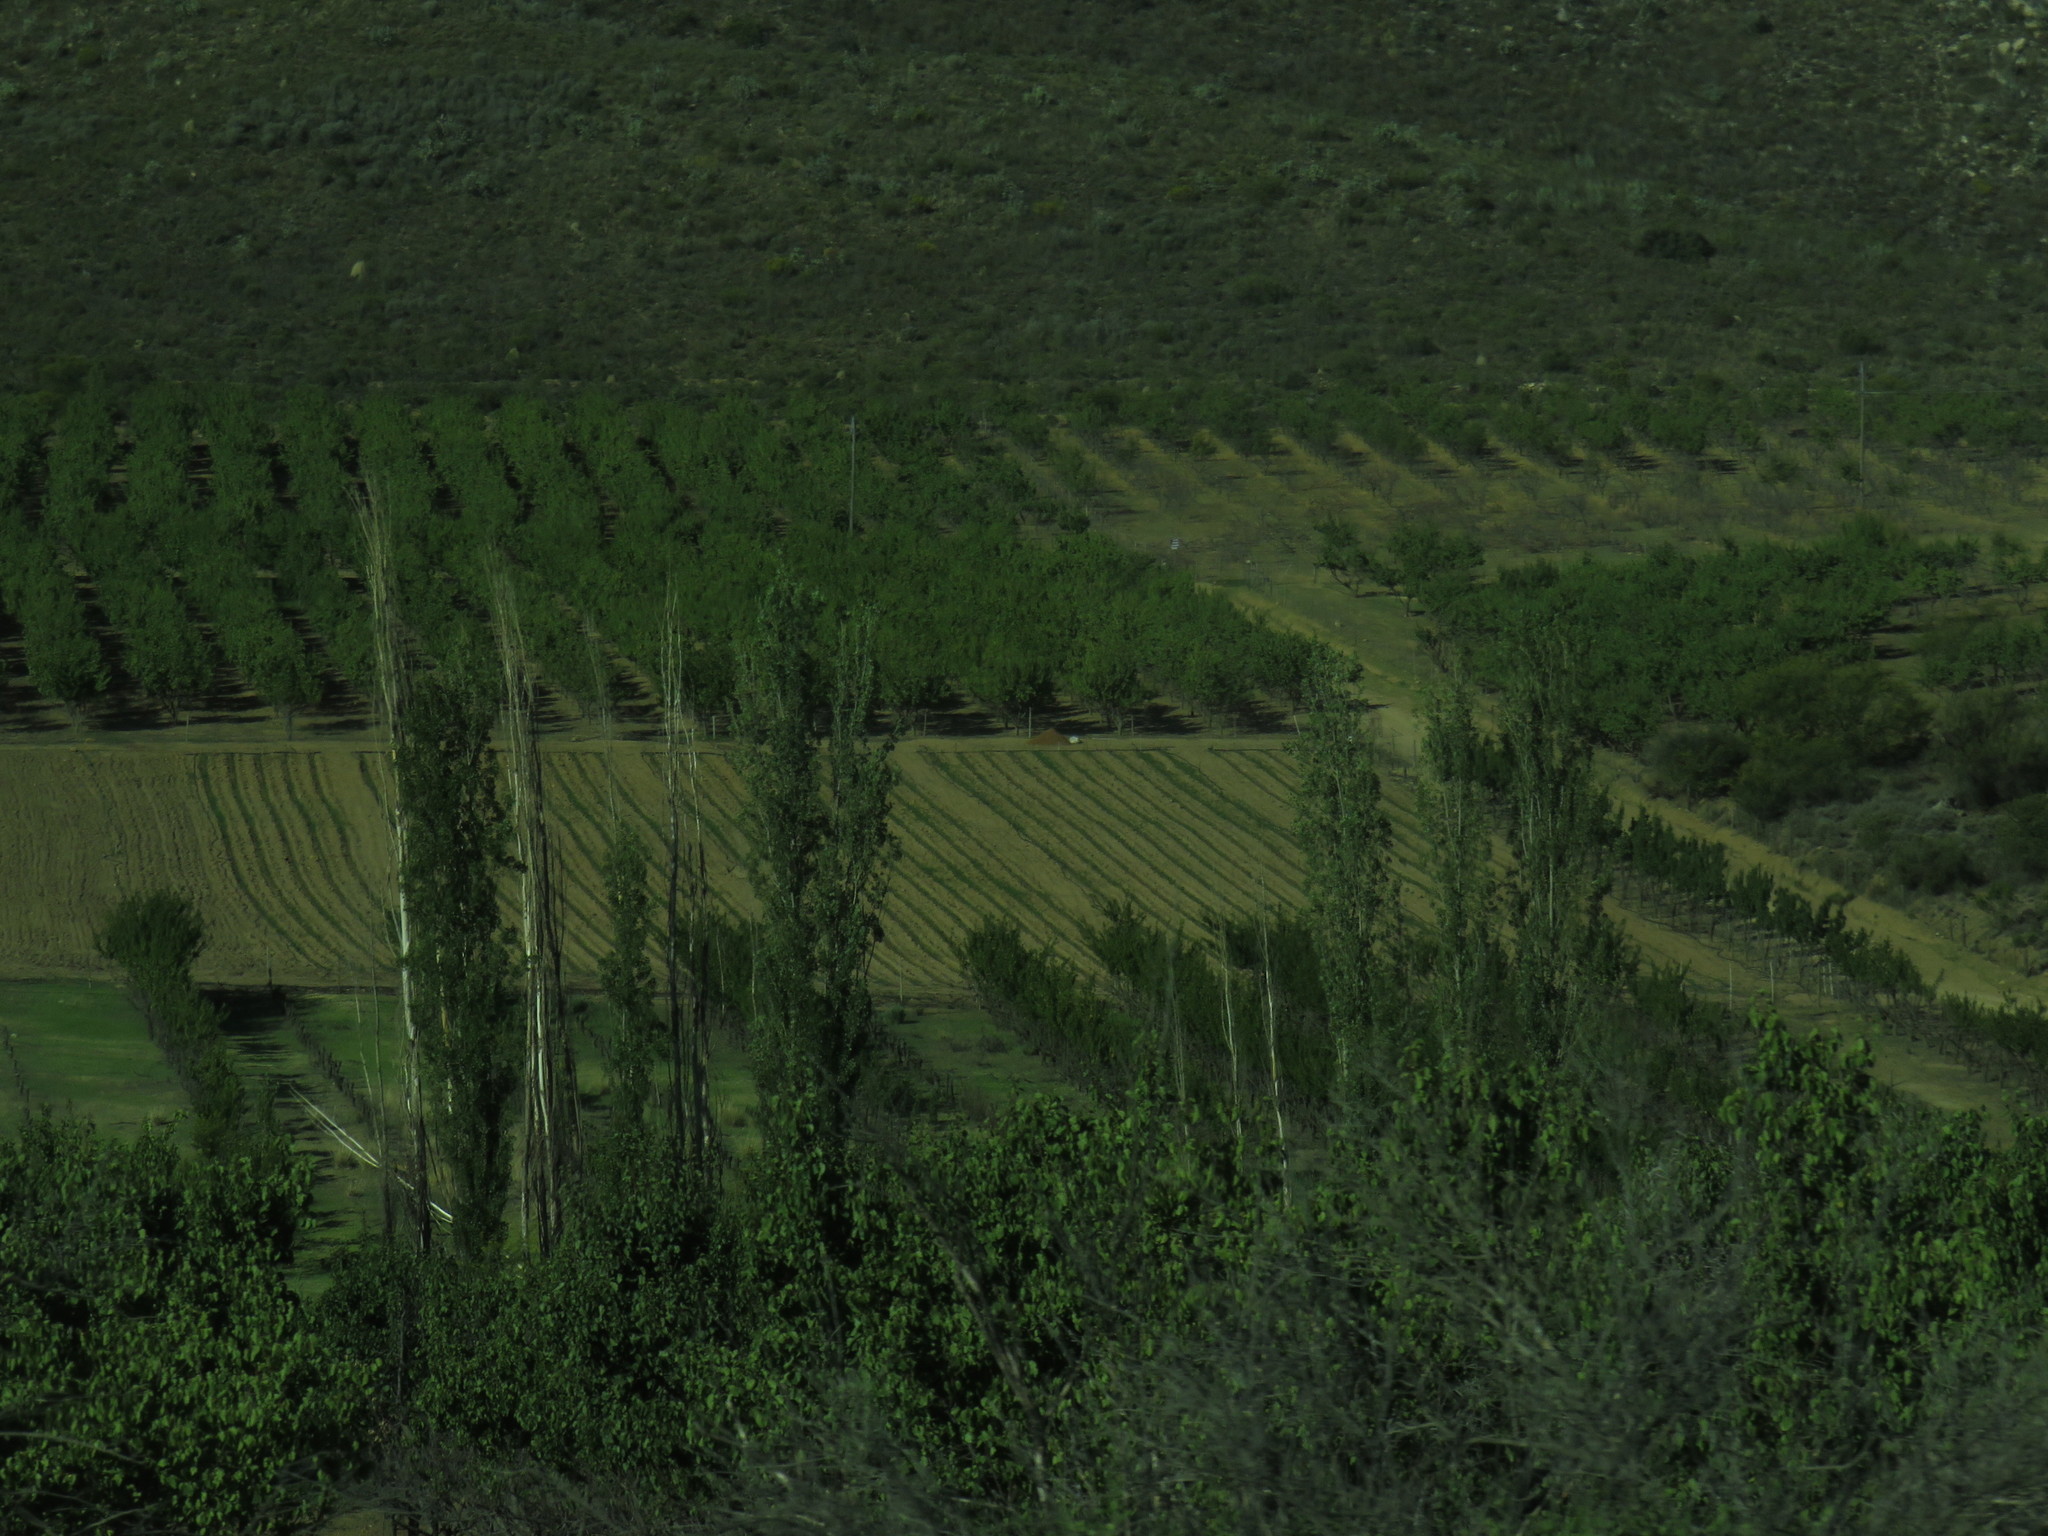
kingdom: Plantae
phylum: Tracheophyta
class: Magnoliopsida
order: Malpighiales
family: Salicaceae
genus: Populus
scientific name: Populus nigra
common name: Black poplar
